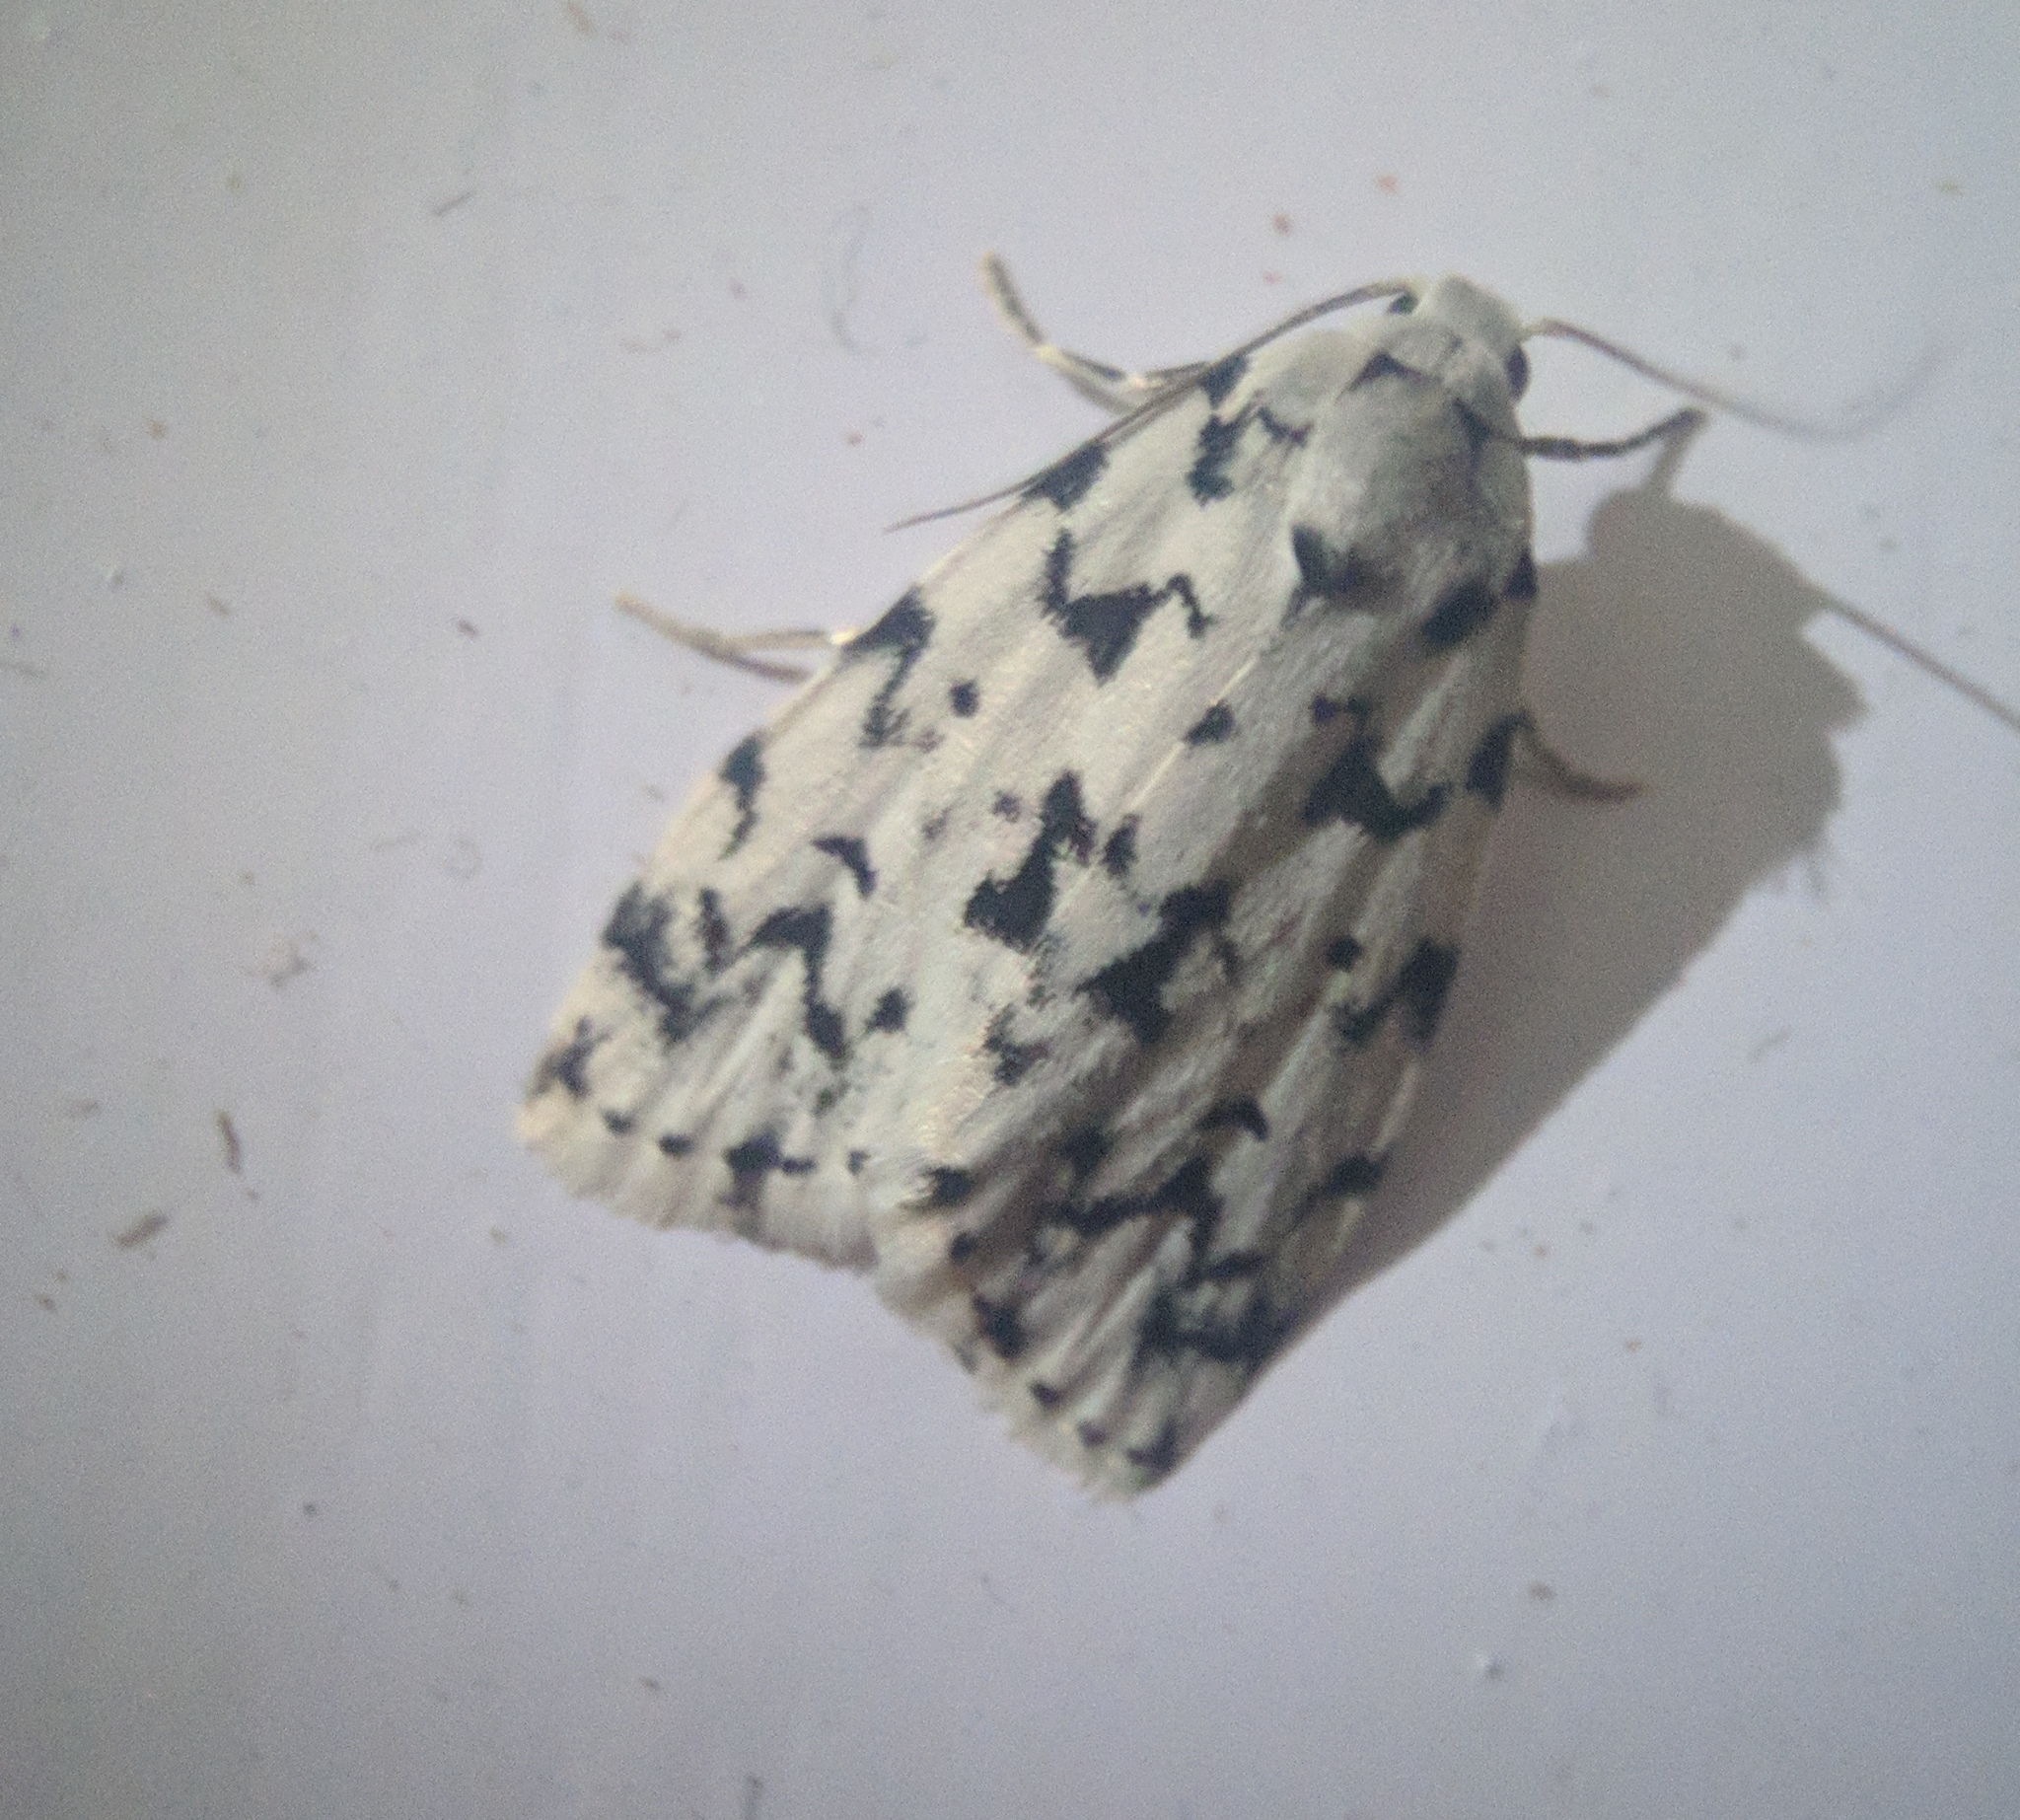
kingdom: Animalia
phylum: Arthropoda
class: Insecta
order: Lepidoptera
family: Erebidae
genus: Siccia
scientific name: Siccia taprobanis
